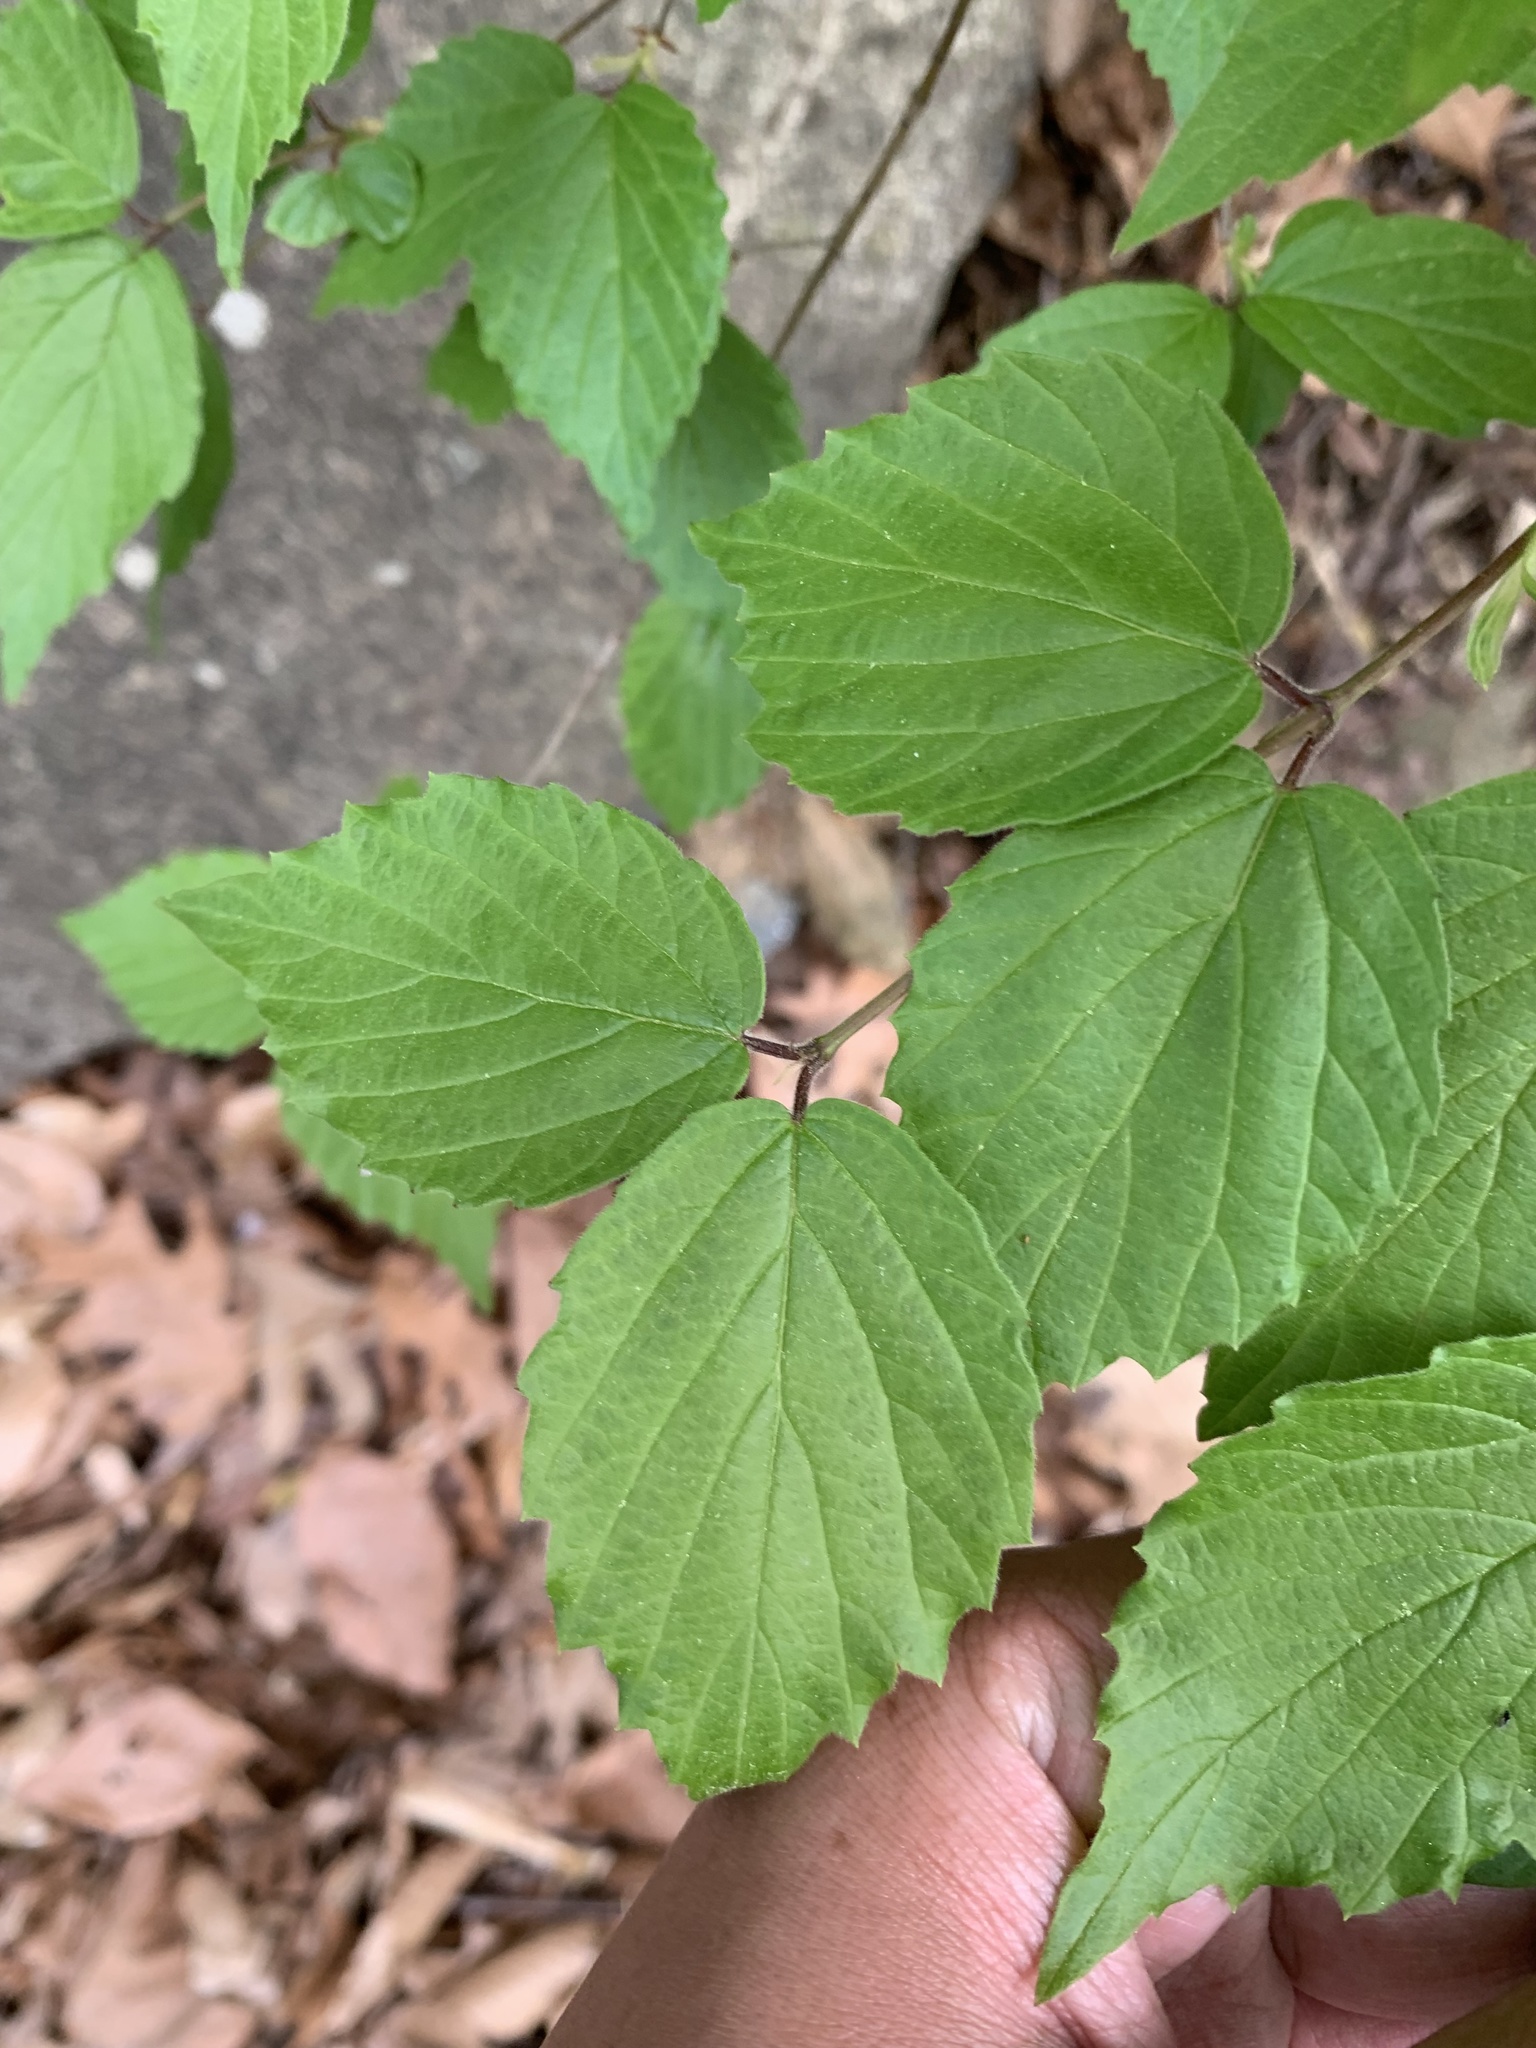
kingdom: Plantae
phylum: Tracheophyta
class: Magnoliopsida
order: Dipsacales
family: Viburnaceae
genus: Viburnum
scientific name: Viburnum rafinesqueanum
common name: Downy arrow-wood
